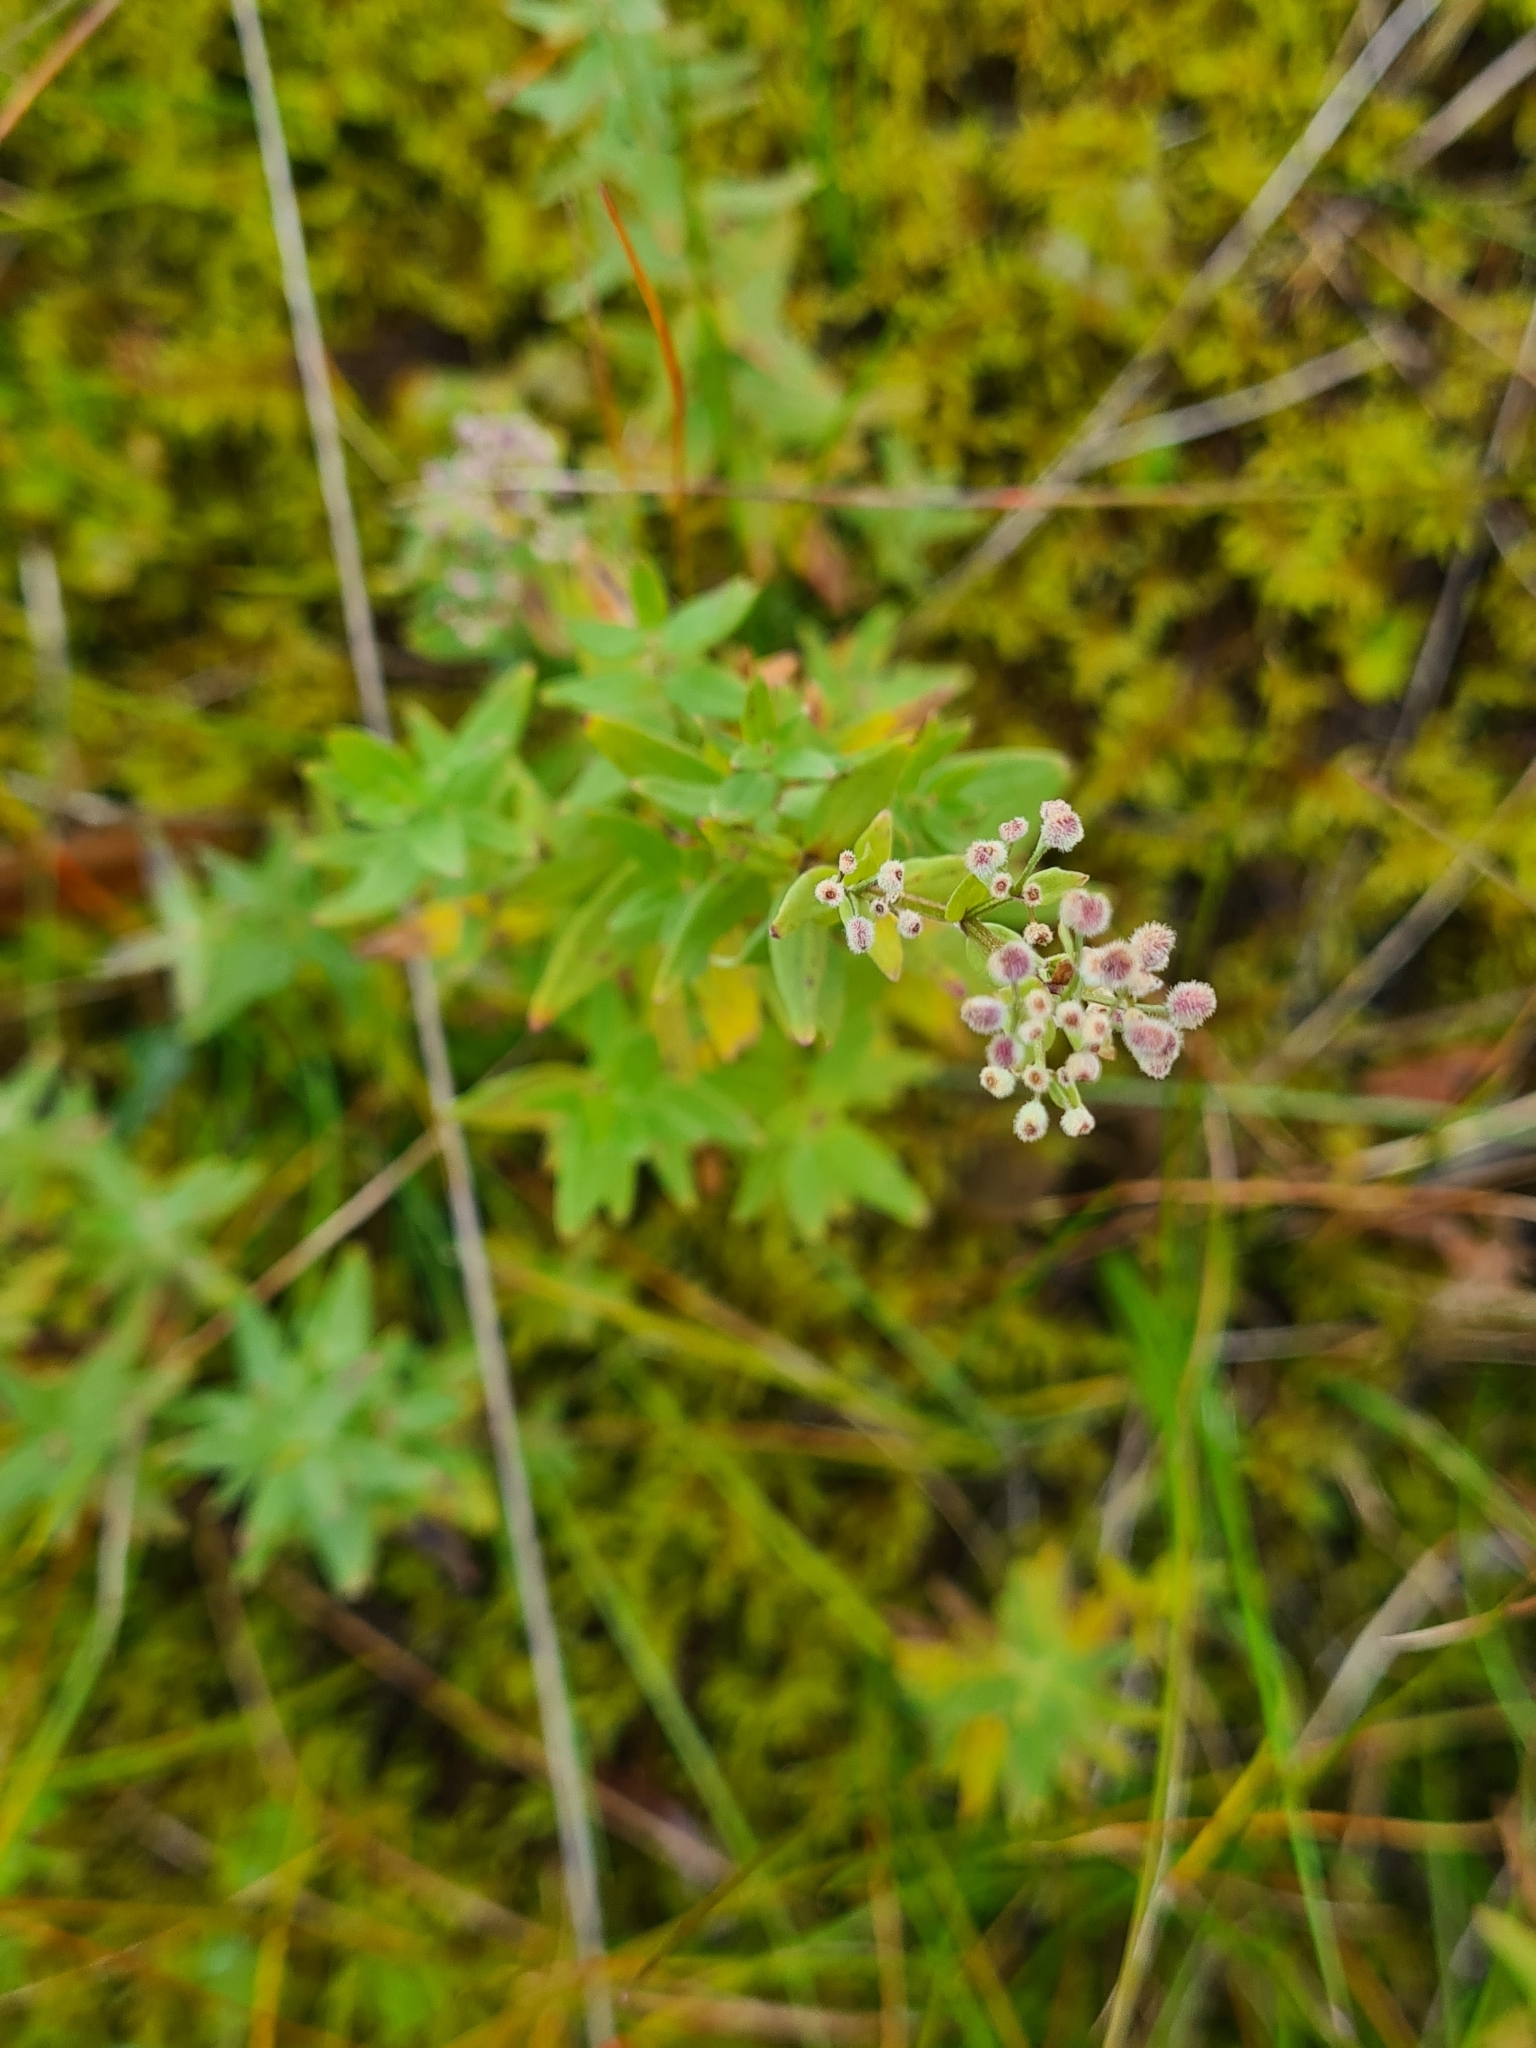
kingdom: Plantae
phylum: Tracheophyta
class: Magnoliopsida
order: Gentianales
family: Rubiaceae
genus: Galium
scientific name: Galium boreale
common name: Northern bedstraw
